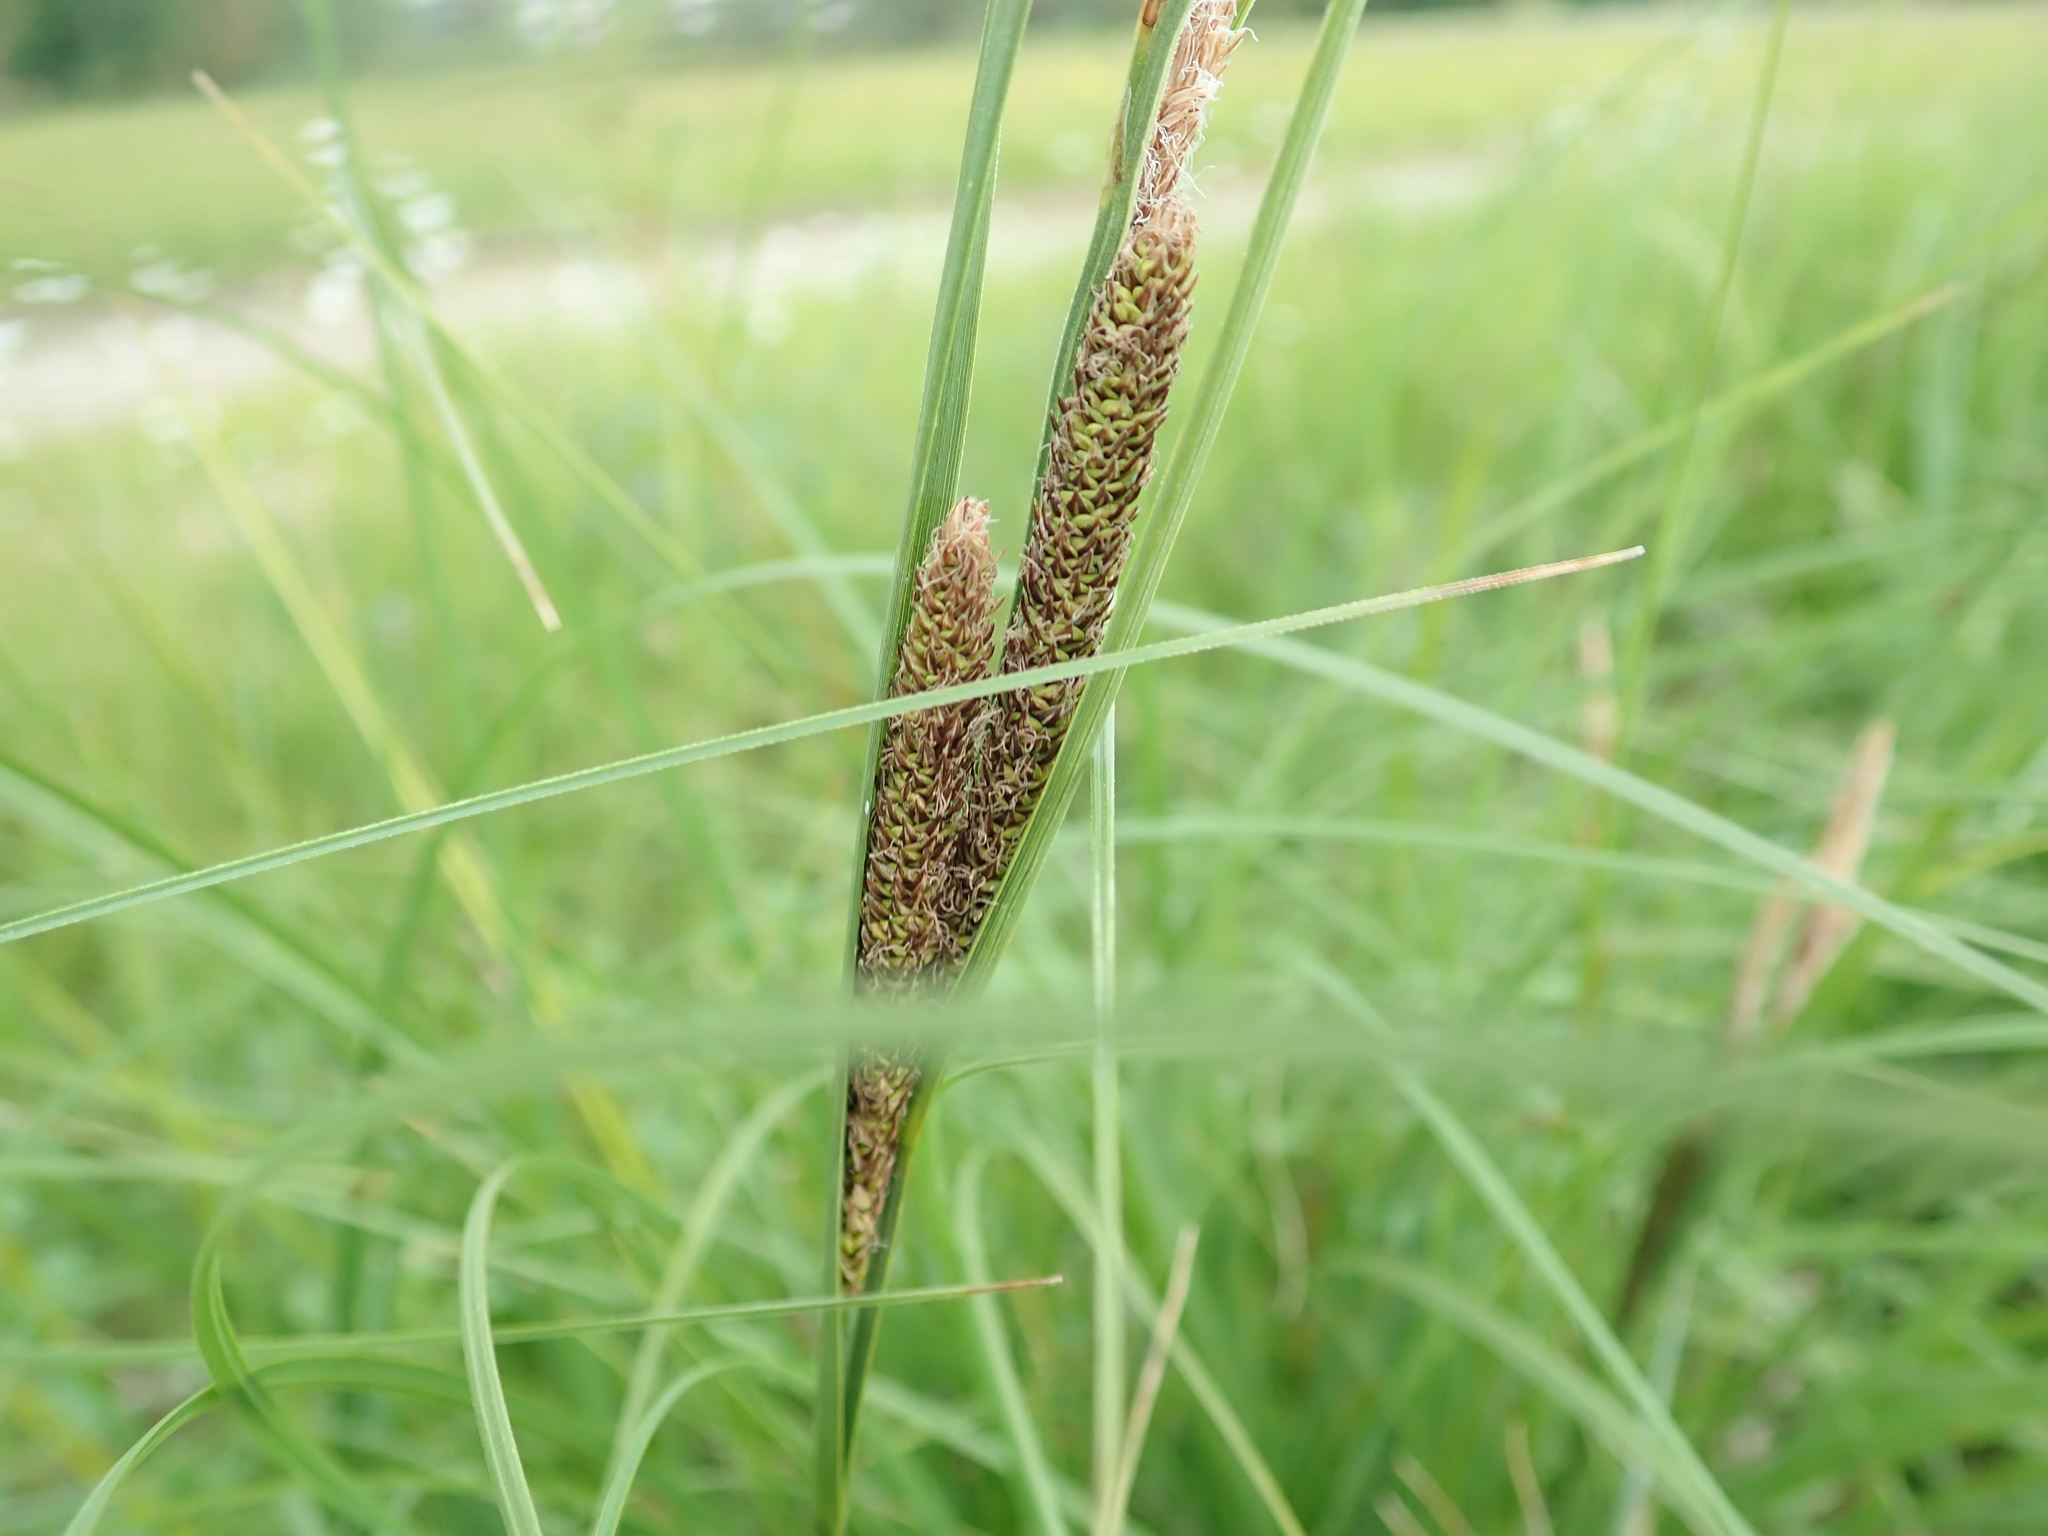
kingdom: Plantae
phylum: Tracheophyta
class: Liliopsida
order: Poales
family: Cyperaceae
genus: Carex
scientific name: Carex aquatilis
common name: Water sedge
